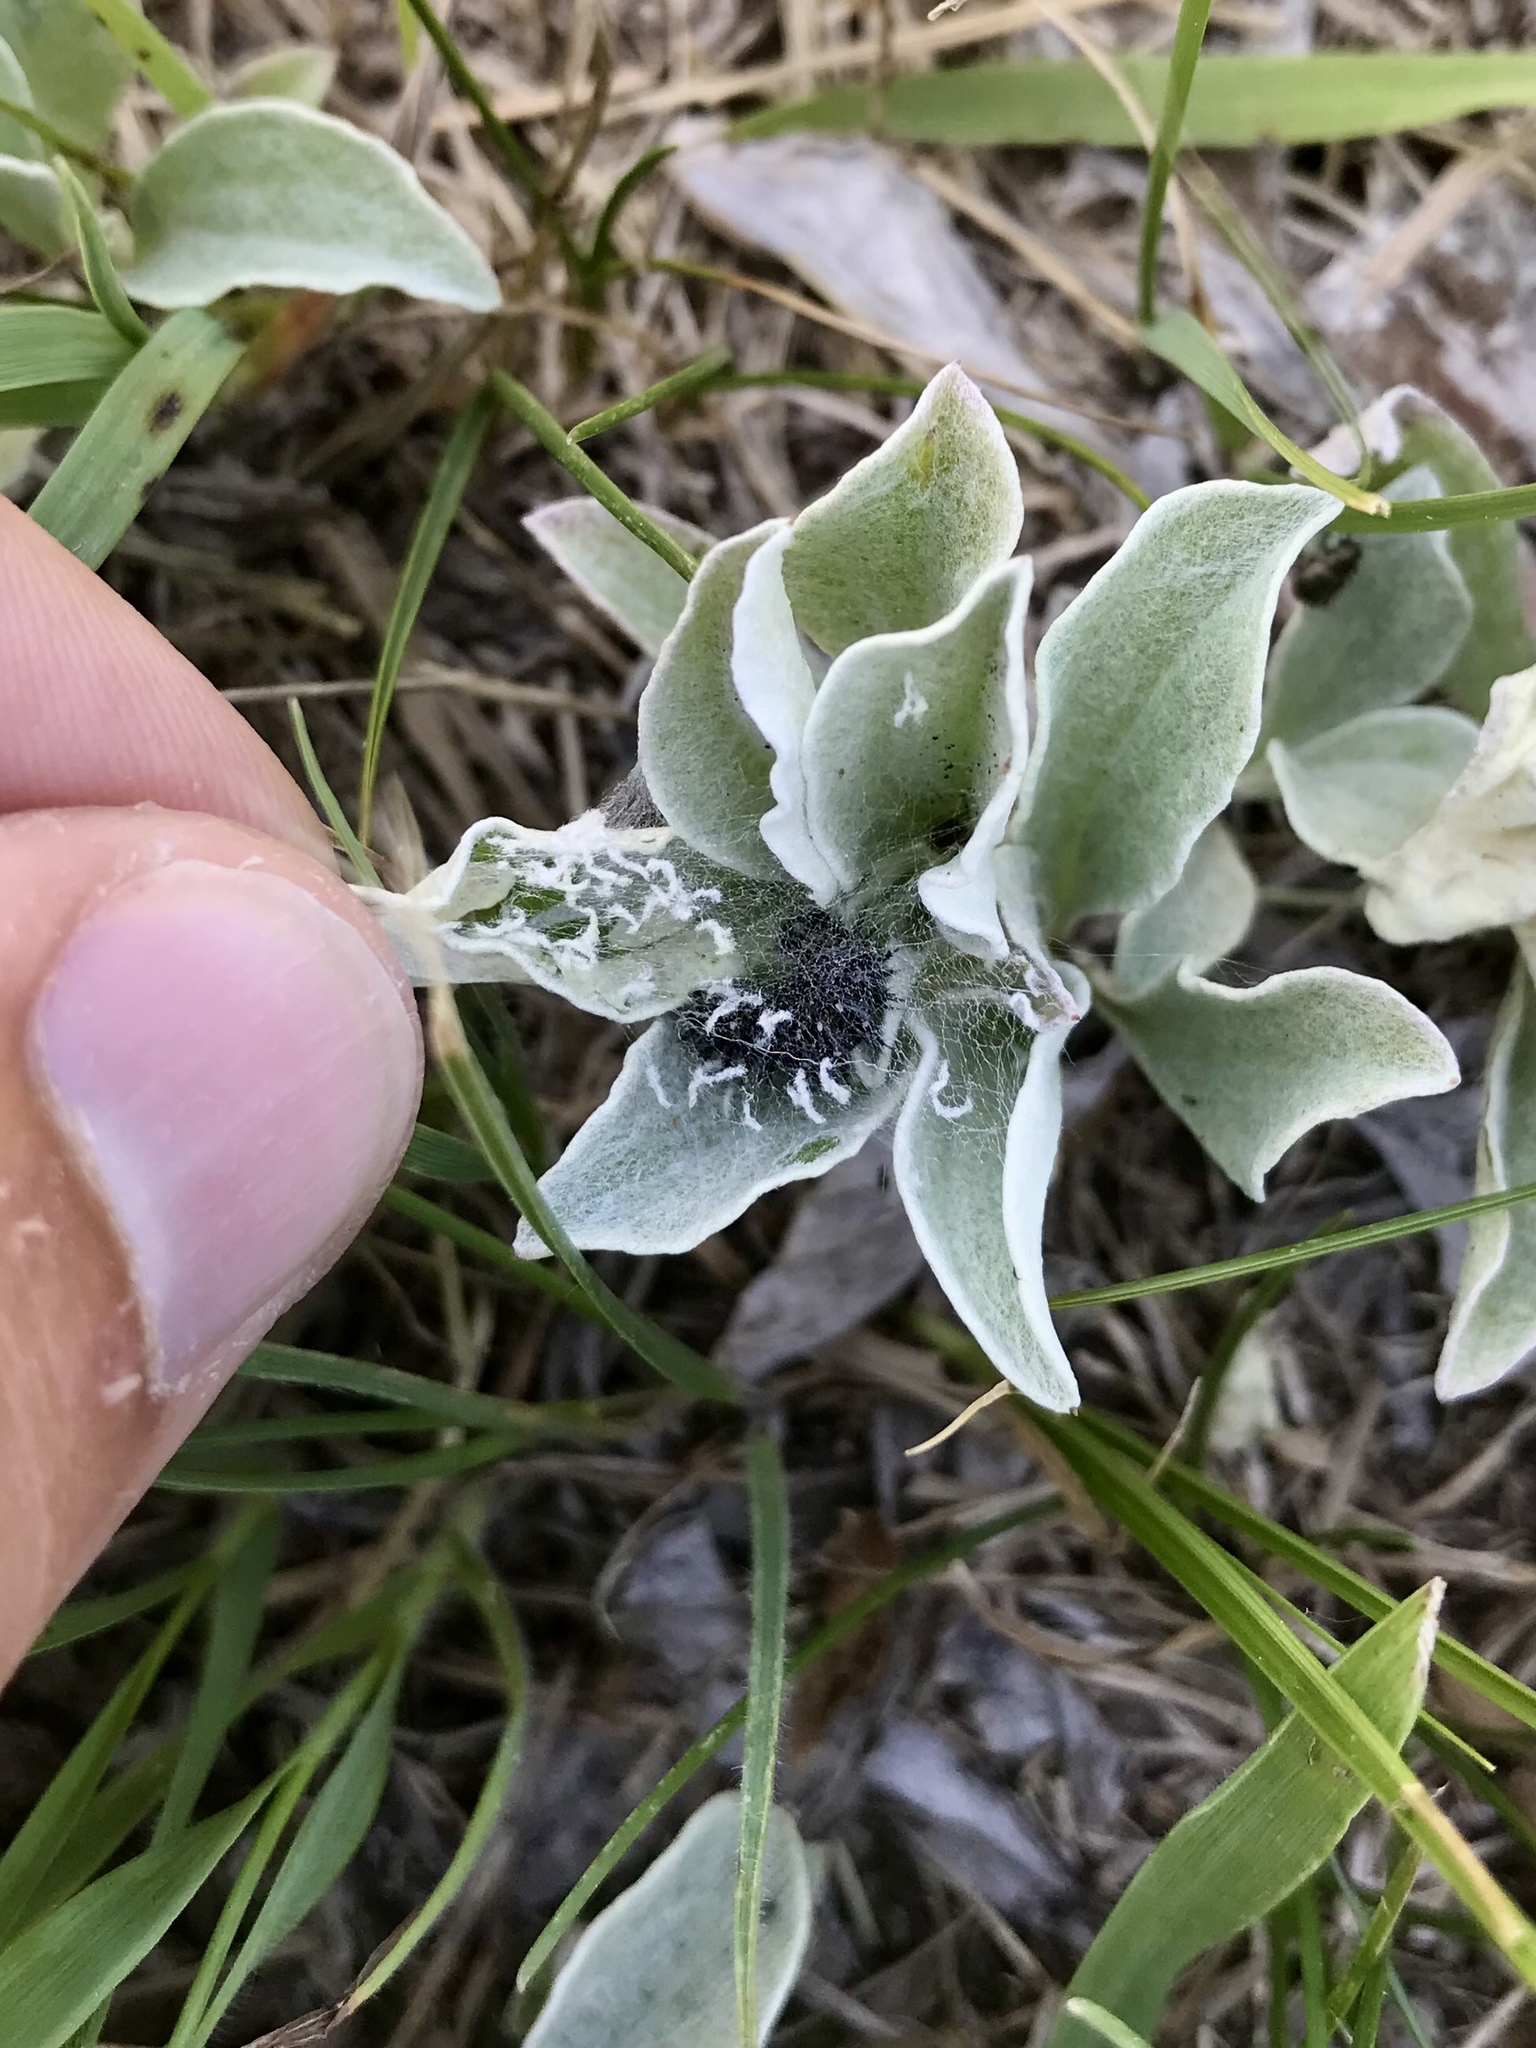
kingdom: Animalia
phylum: Arthropoda
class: Insecta
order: Lepidoptera
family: Nymphalidae
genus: Vanessa
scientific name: Vanessa virginiensis
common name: American lady
